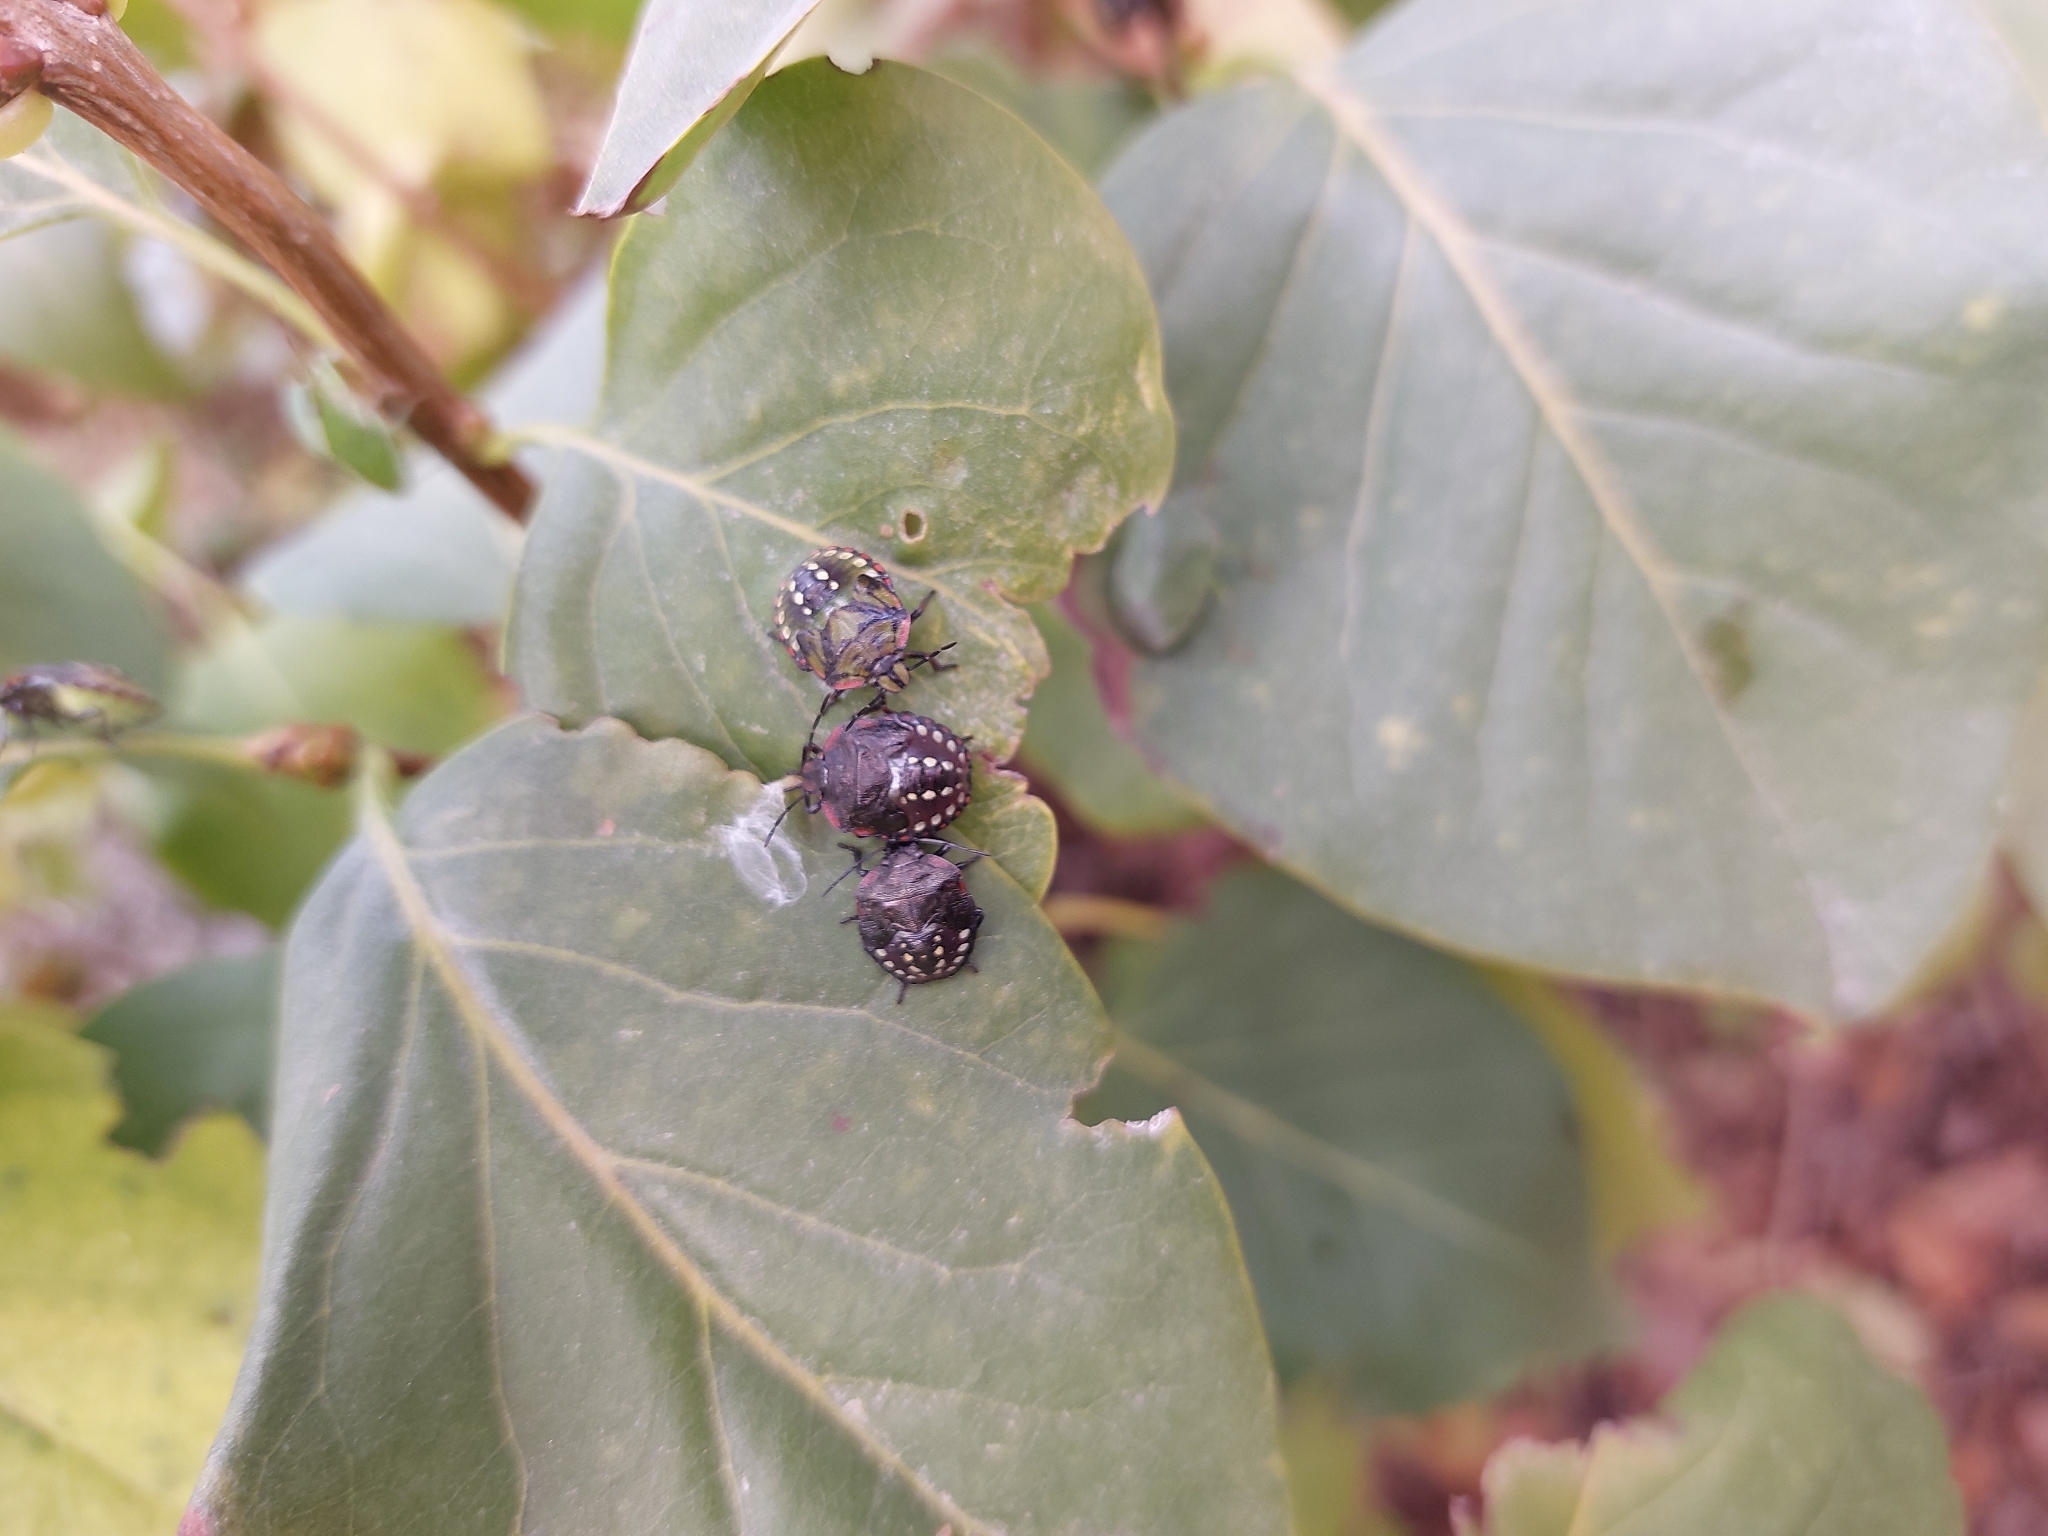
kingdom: Animalia
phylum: Arthropoda
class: Insecta
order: Hemiptera
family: Pentatomidae
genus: Nezara
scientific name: Nezara viridula
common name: Southern green stink bug
